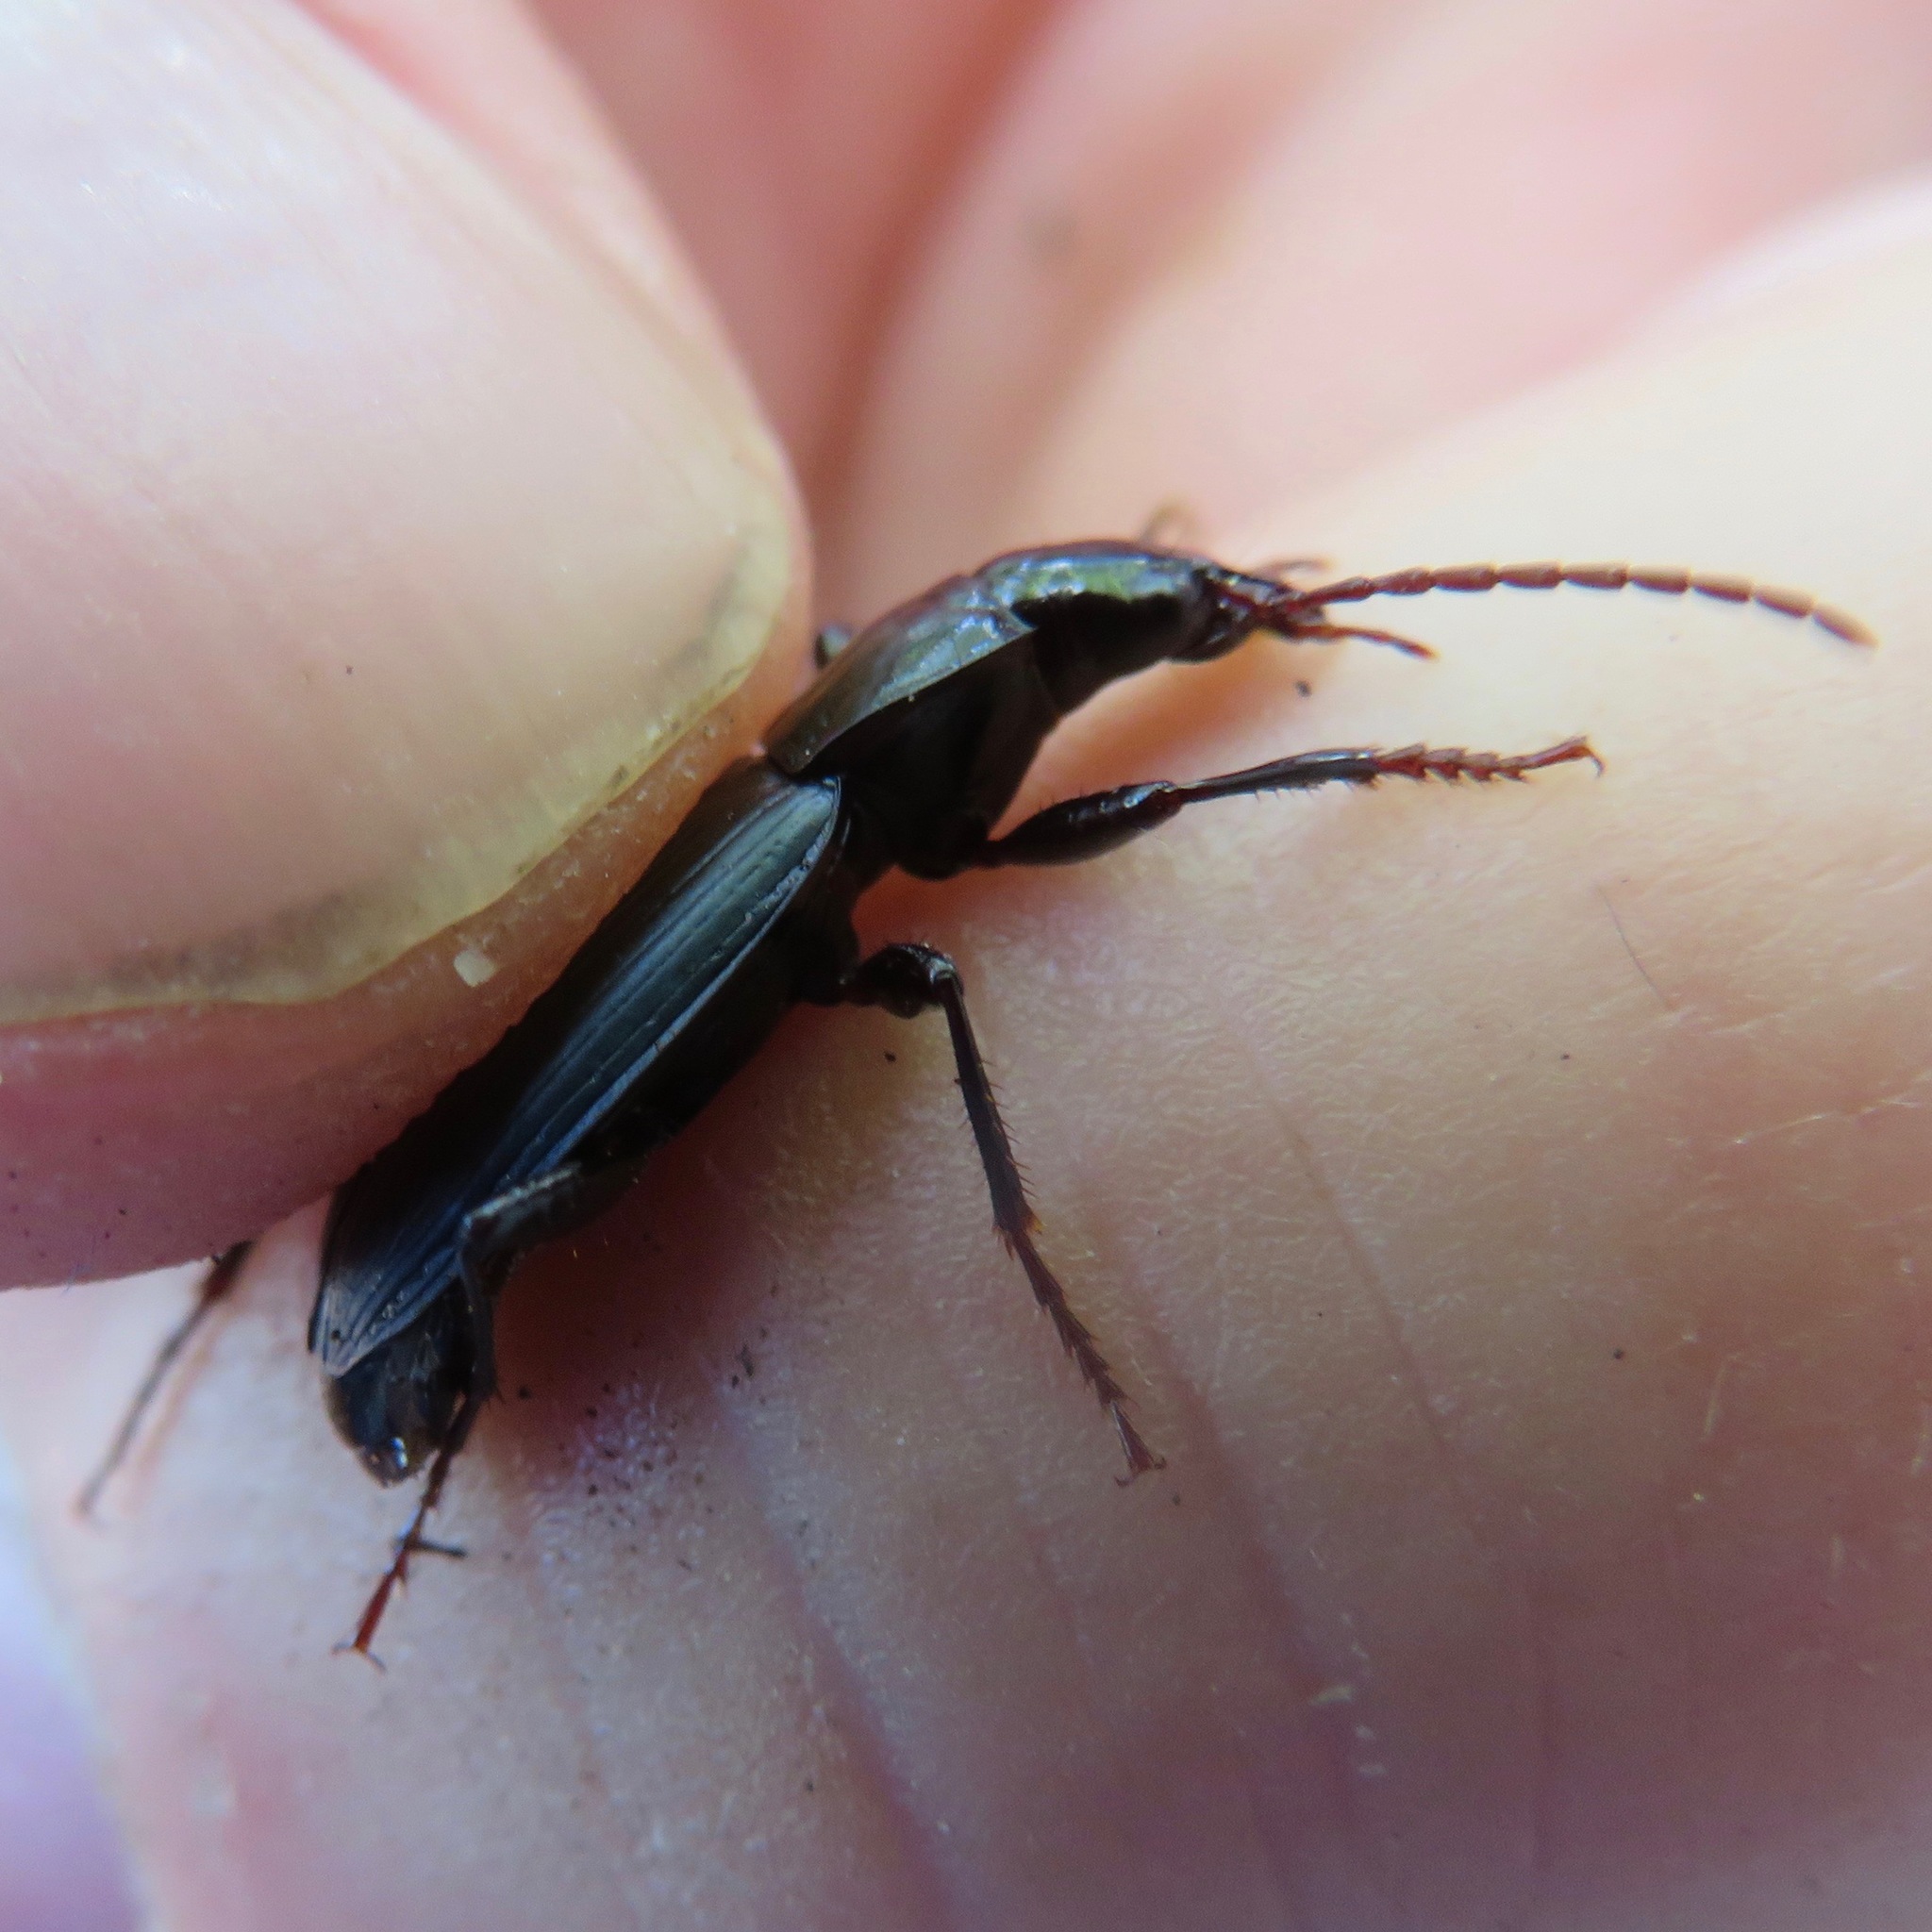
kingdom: Animalia
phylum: Arthropoda
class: Insecta
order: Coleoptera
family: Carabidae
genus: Laemostenus
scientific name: Laemostenus complanatus
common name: Cosmopolitan ground beetle
